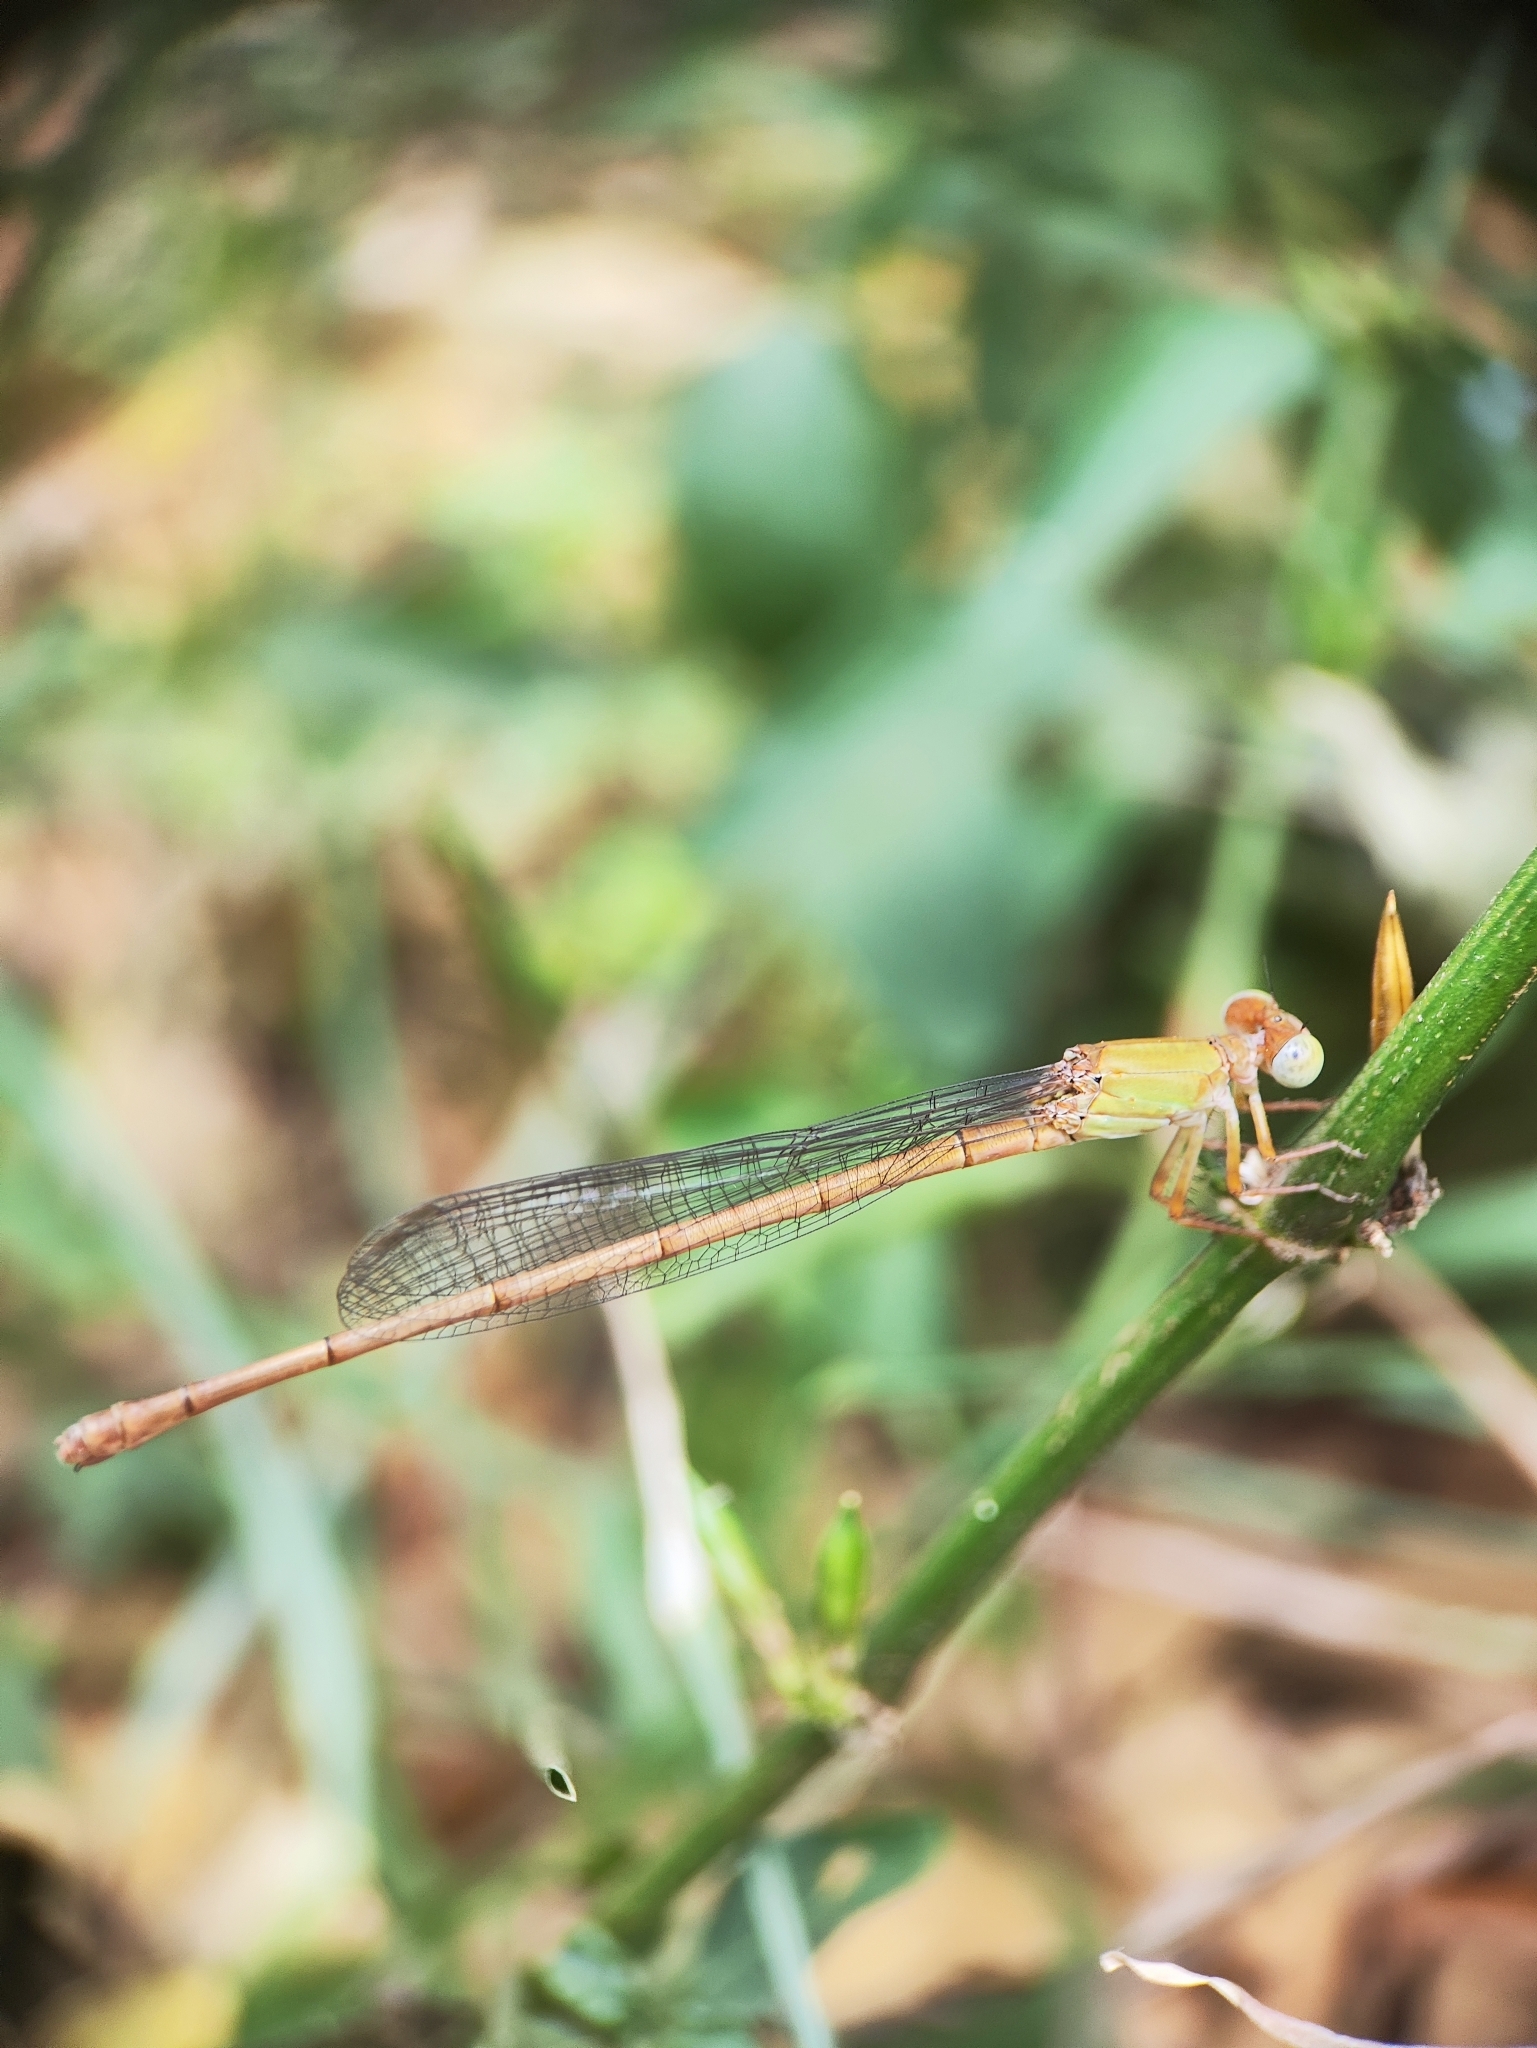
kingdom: Animalia
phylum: Arthropoda
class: Insecta
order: Odonata
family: Coenagrionidae
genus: Ceriagrion
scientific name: Ceriagrion coromandelianum
